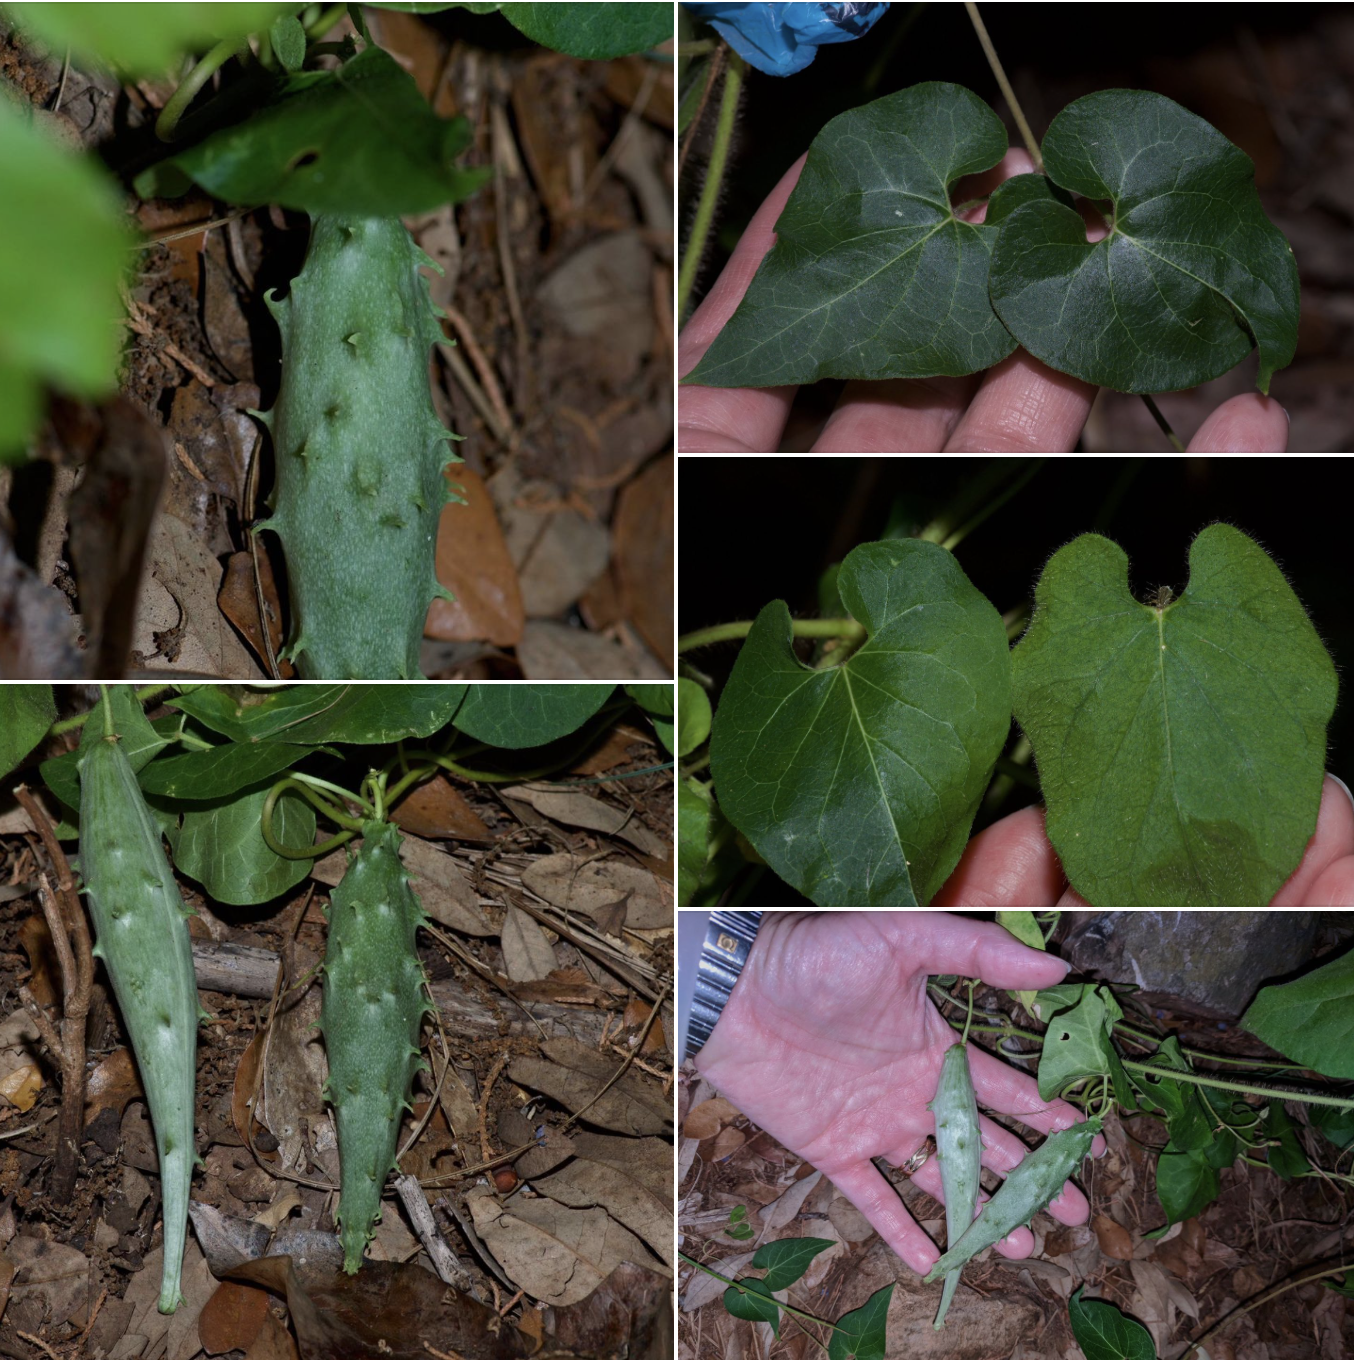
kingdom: Plantae
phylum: Tracheophyta
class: Magnoliopsida
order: Gentianales
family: Apocynaceae
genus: Matelea
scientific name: Matelea edwardsensis
